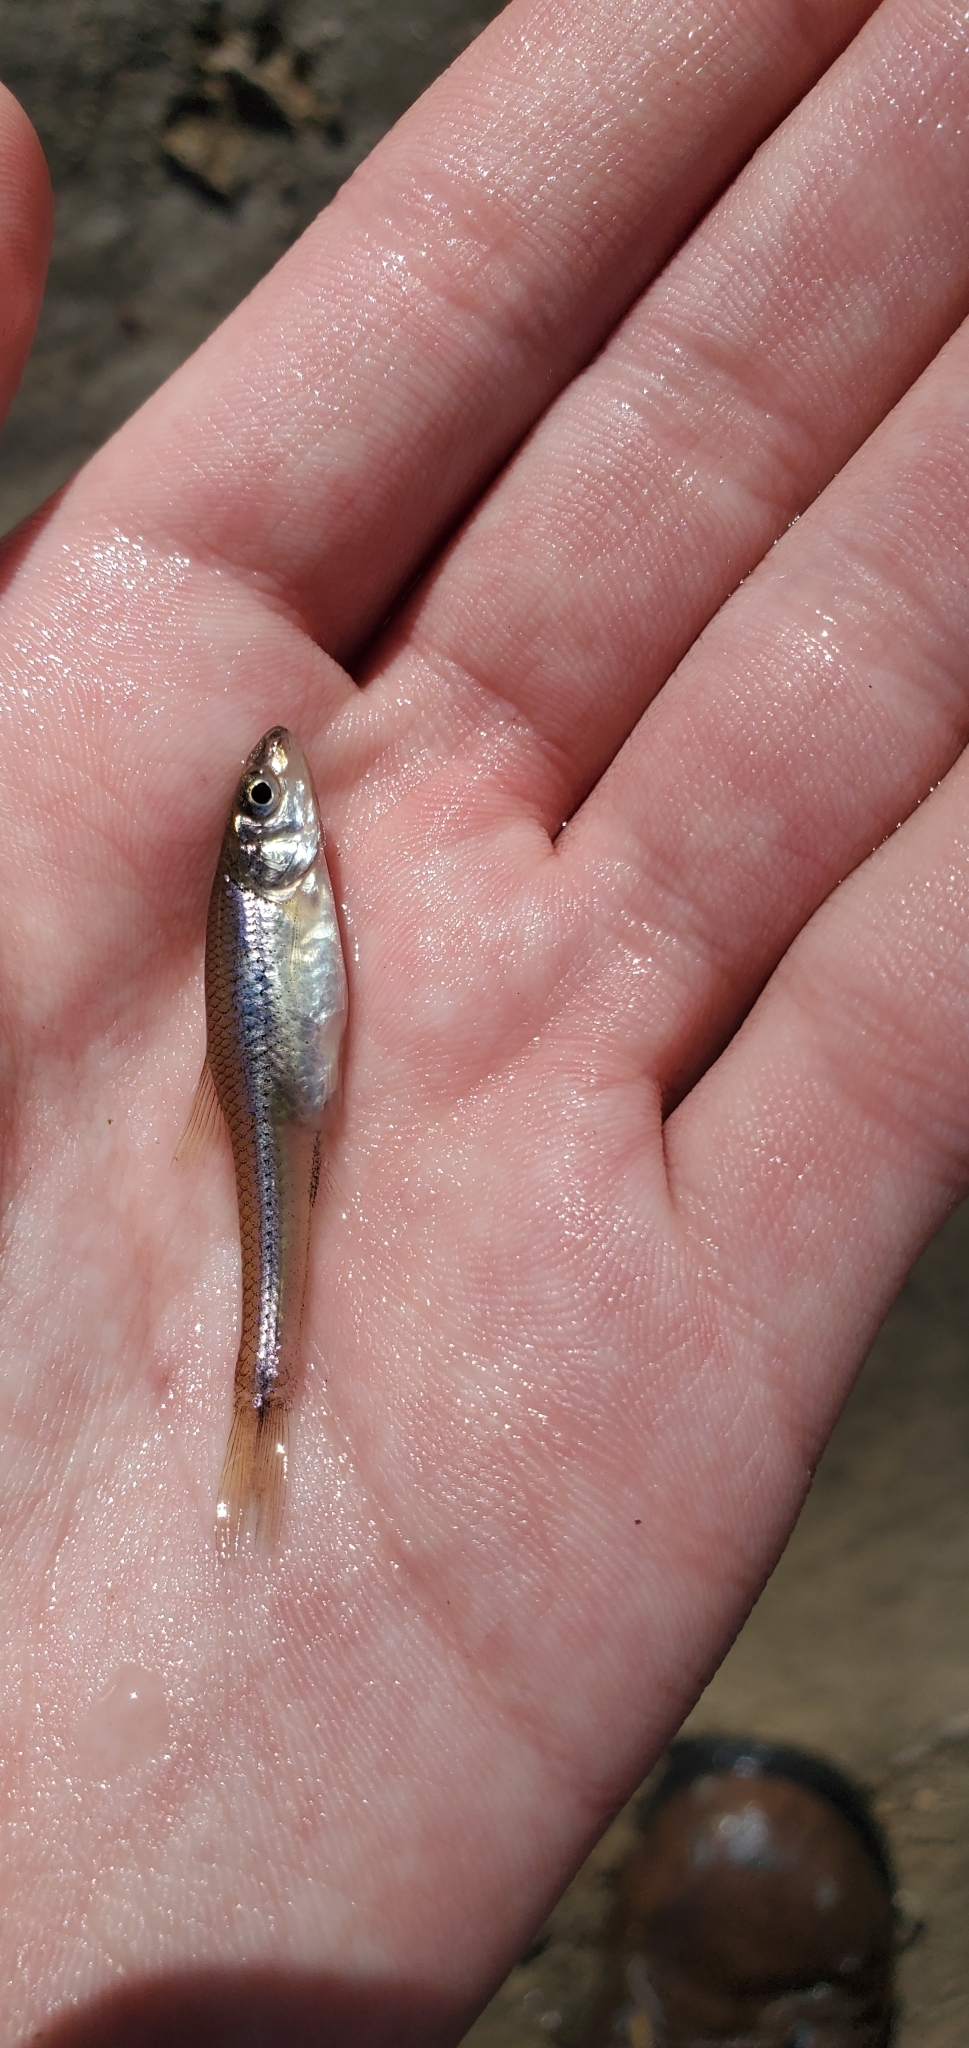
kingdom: Animalia
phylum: Chordata
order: Cypriniformes
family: Cyprinidae
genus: Ericymba
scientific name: Ericymba
